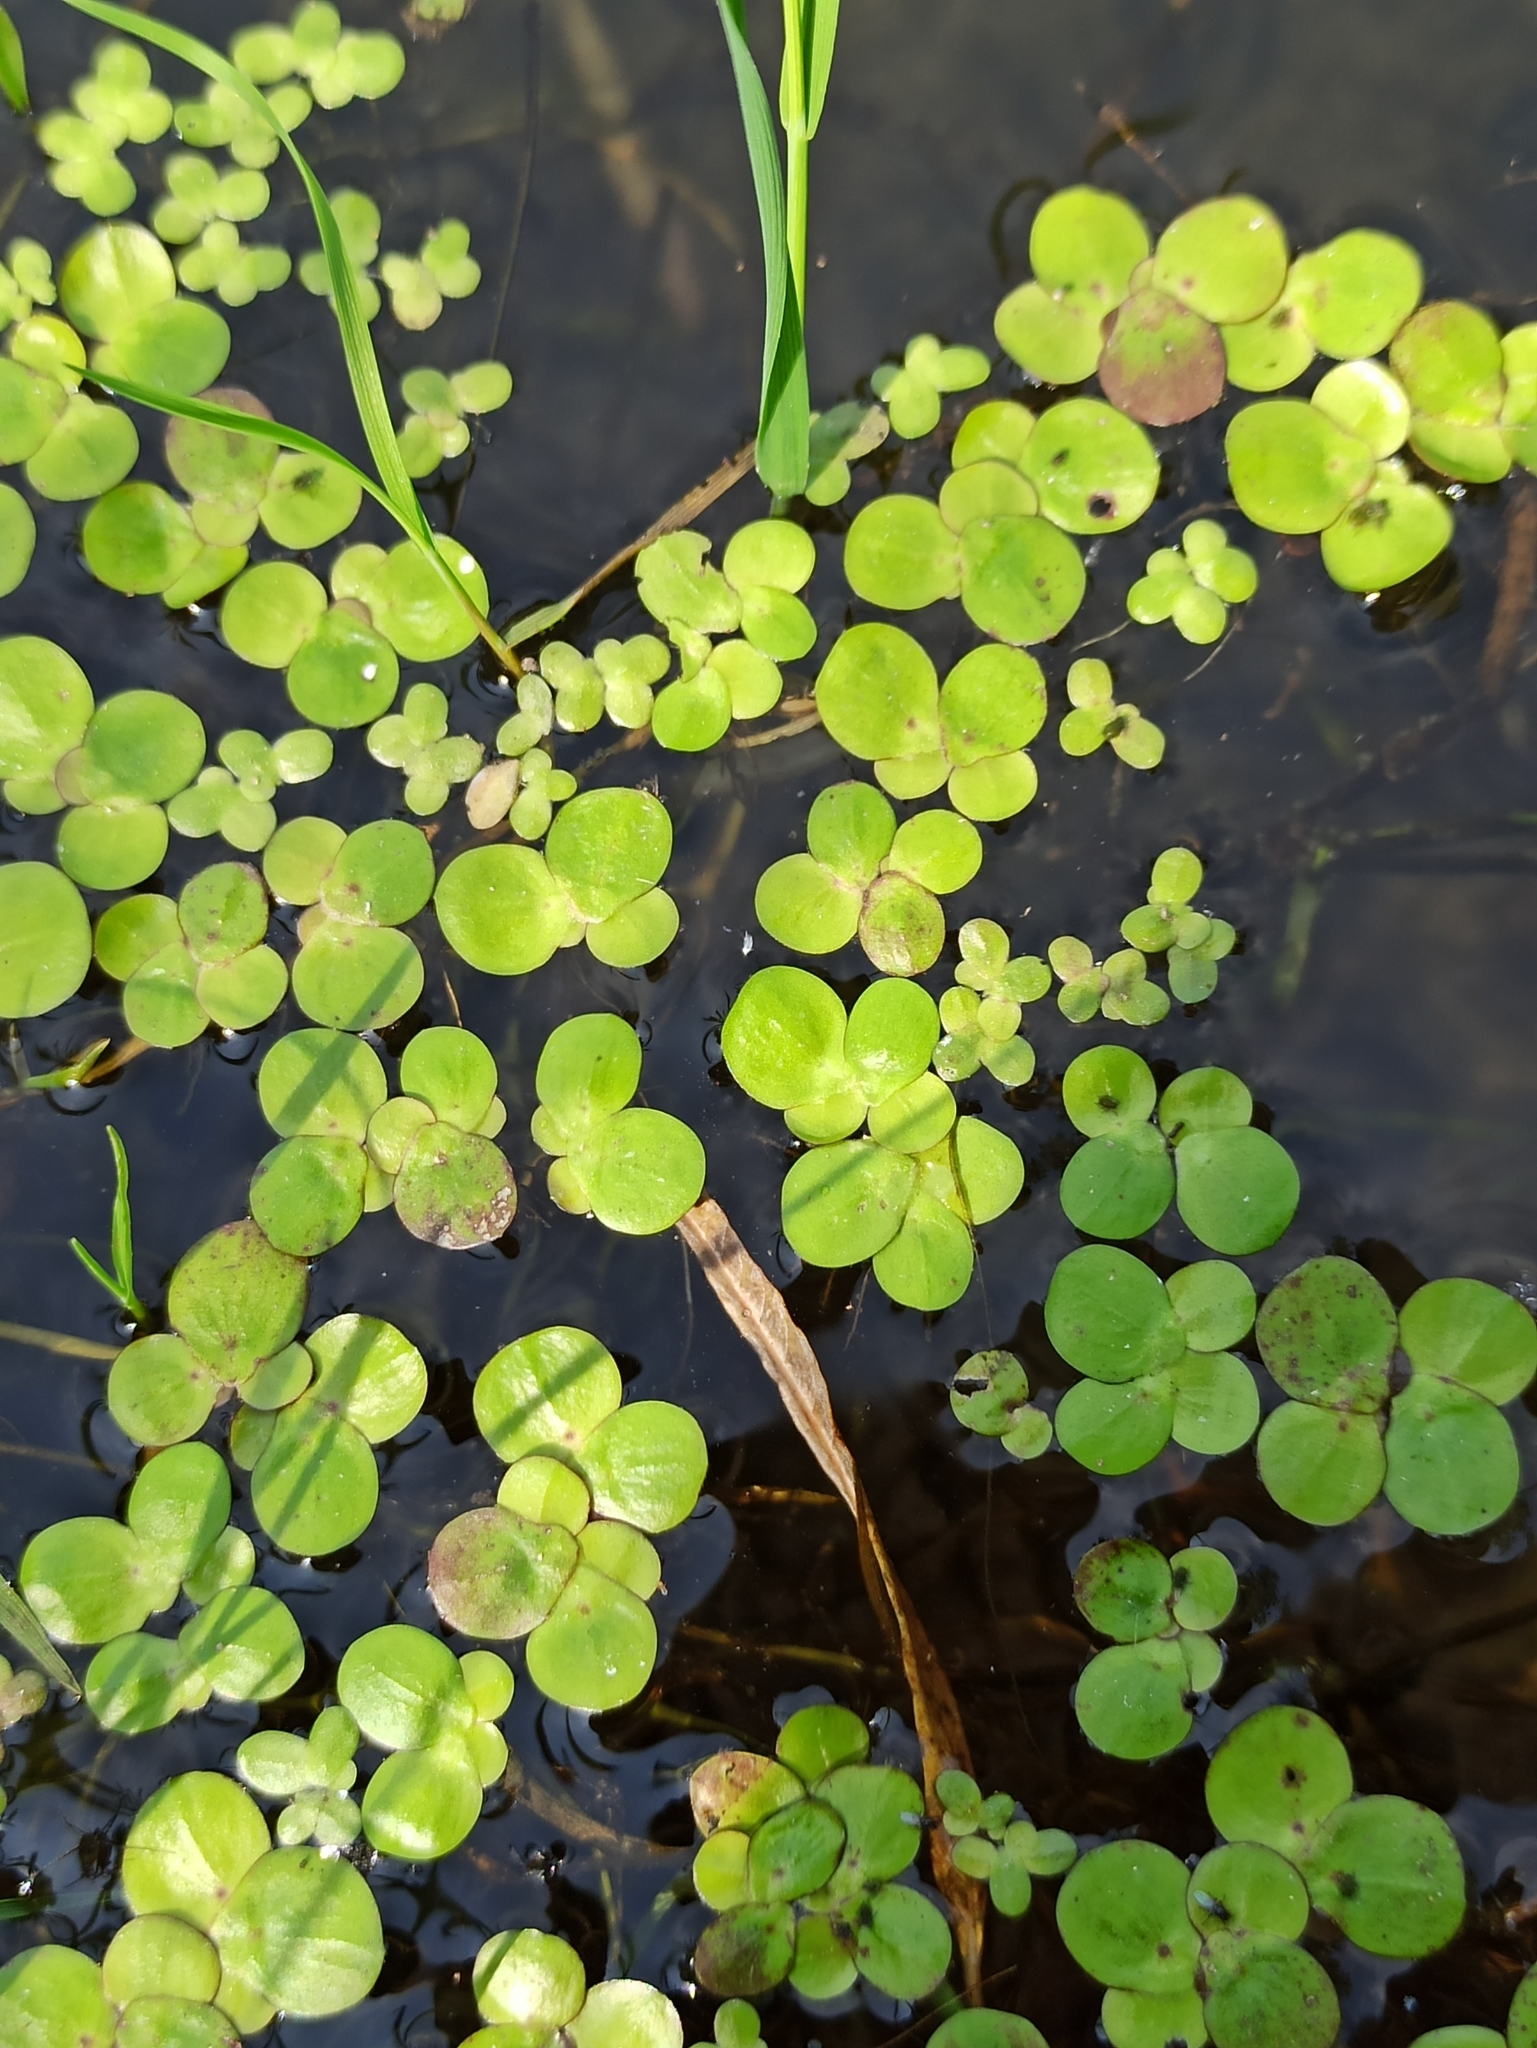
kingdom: Plantae
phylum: Tracheophyta
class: Liliopsida
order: Alismatales
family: Araceae
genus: Spirodela
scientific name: Spirodela polyrhiza
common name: Great duckweed
